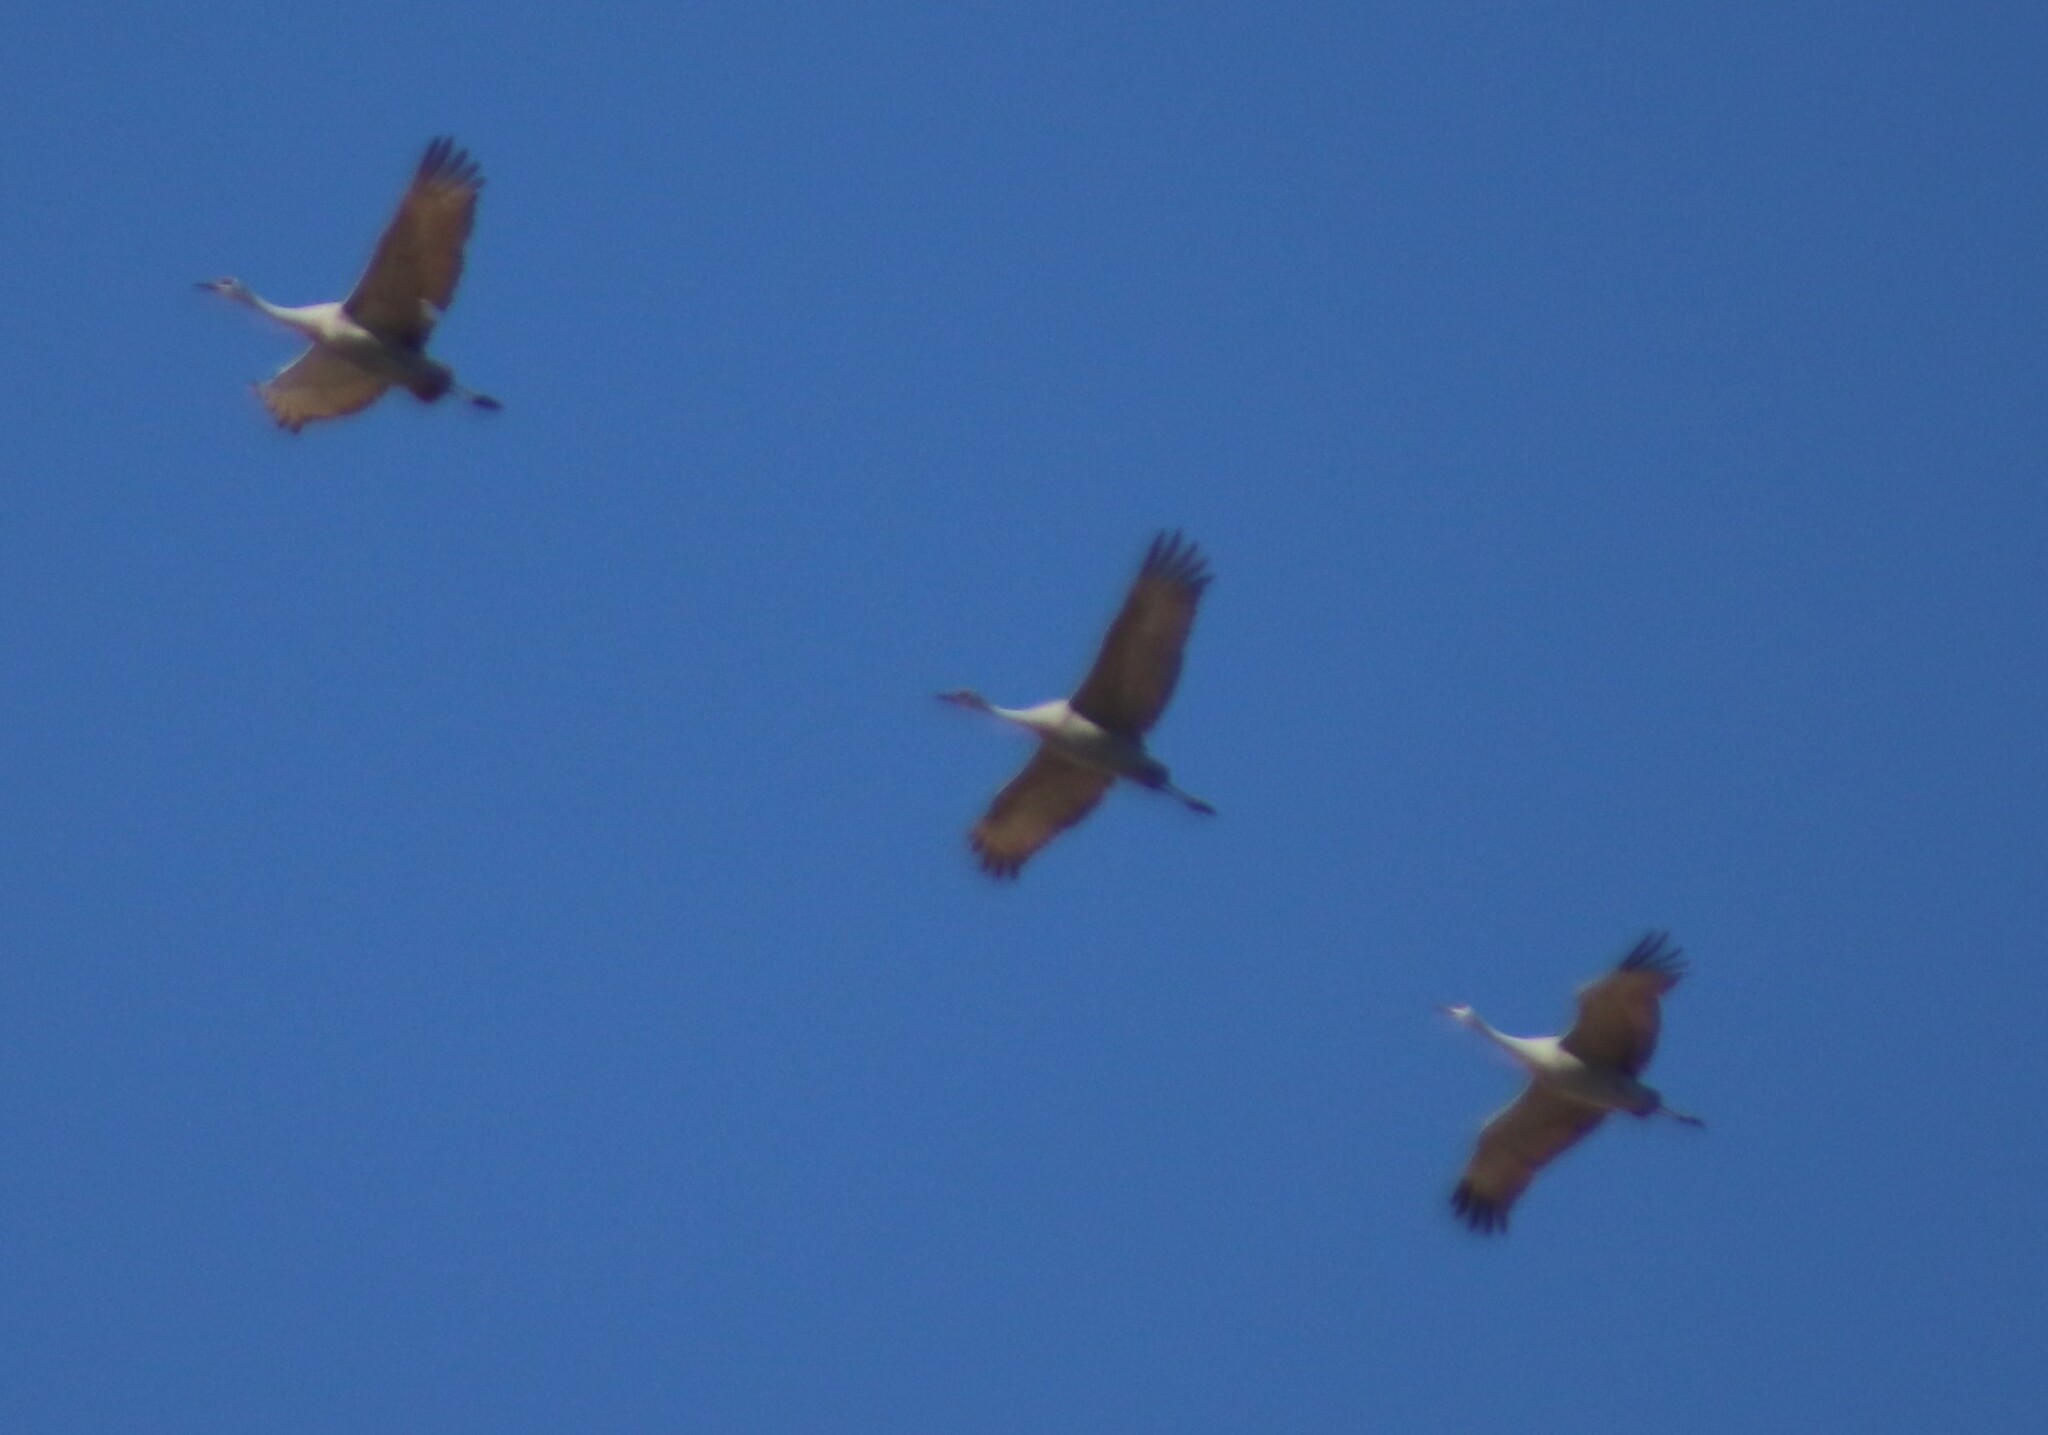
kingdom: Animalia
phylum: Chordata
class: Aves
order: Gruiformes
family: Gruidae
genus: Grus
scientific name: Grus canadensis
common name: Sandhill crane
